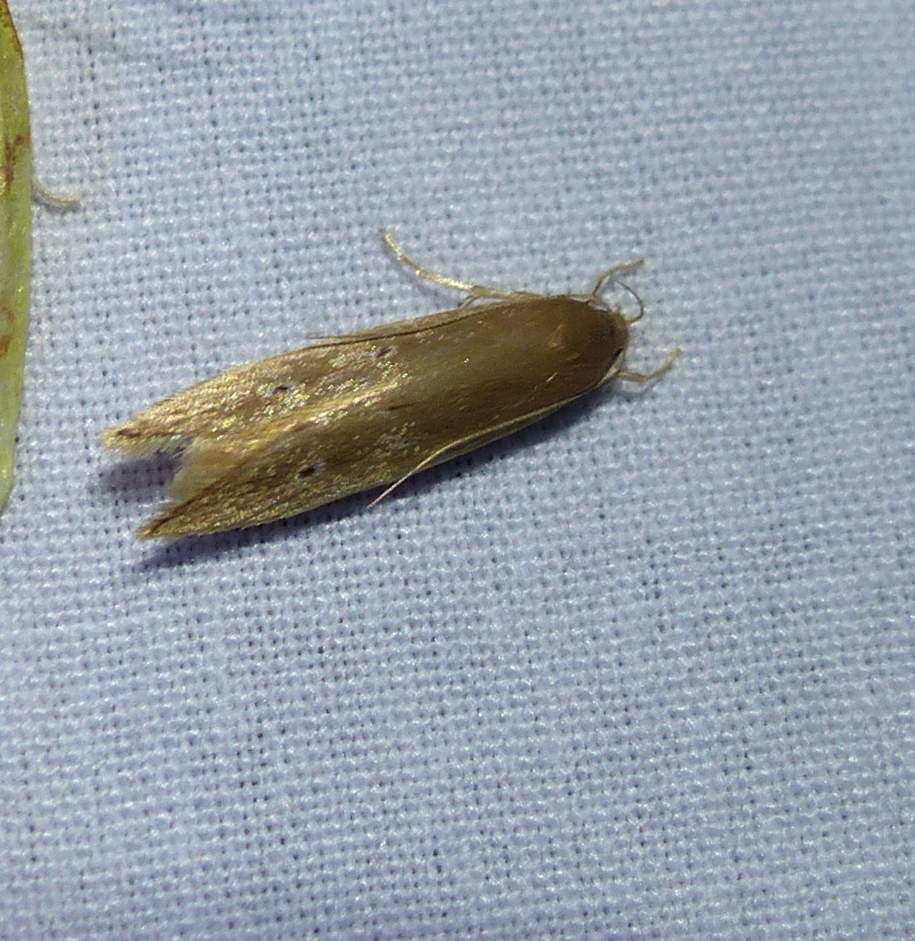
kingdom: Animalia
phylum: Arthropoda
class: Insecta
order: Lepidoptera
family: Cosmopterigidae
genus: Limnaecia
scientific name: Limnaecia phragmitella
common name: Bulrush cosmet
